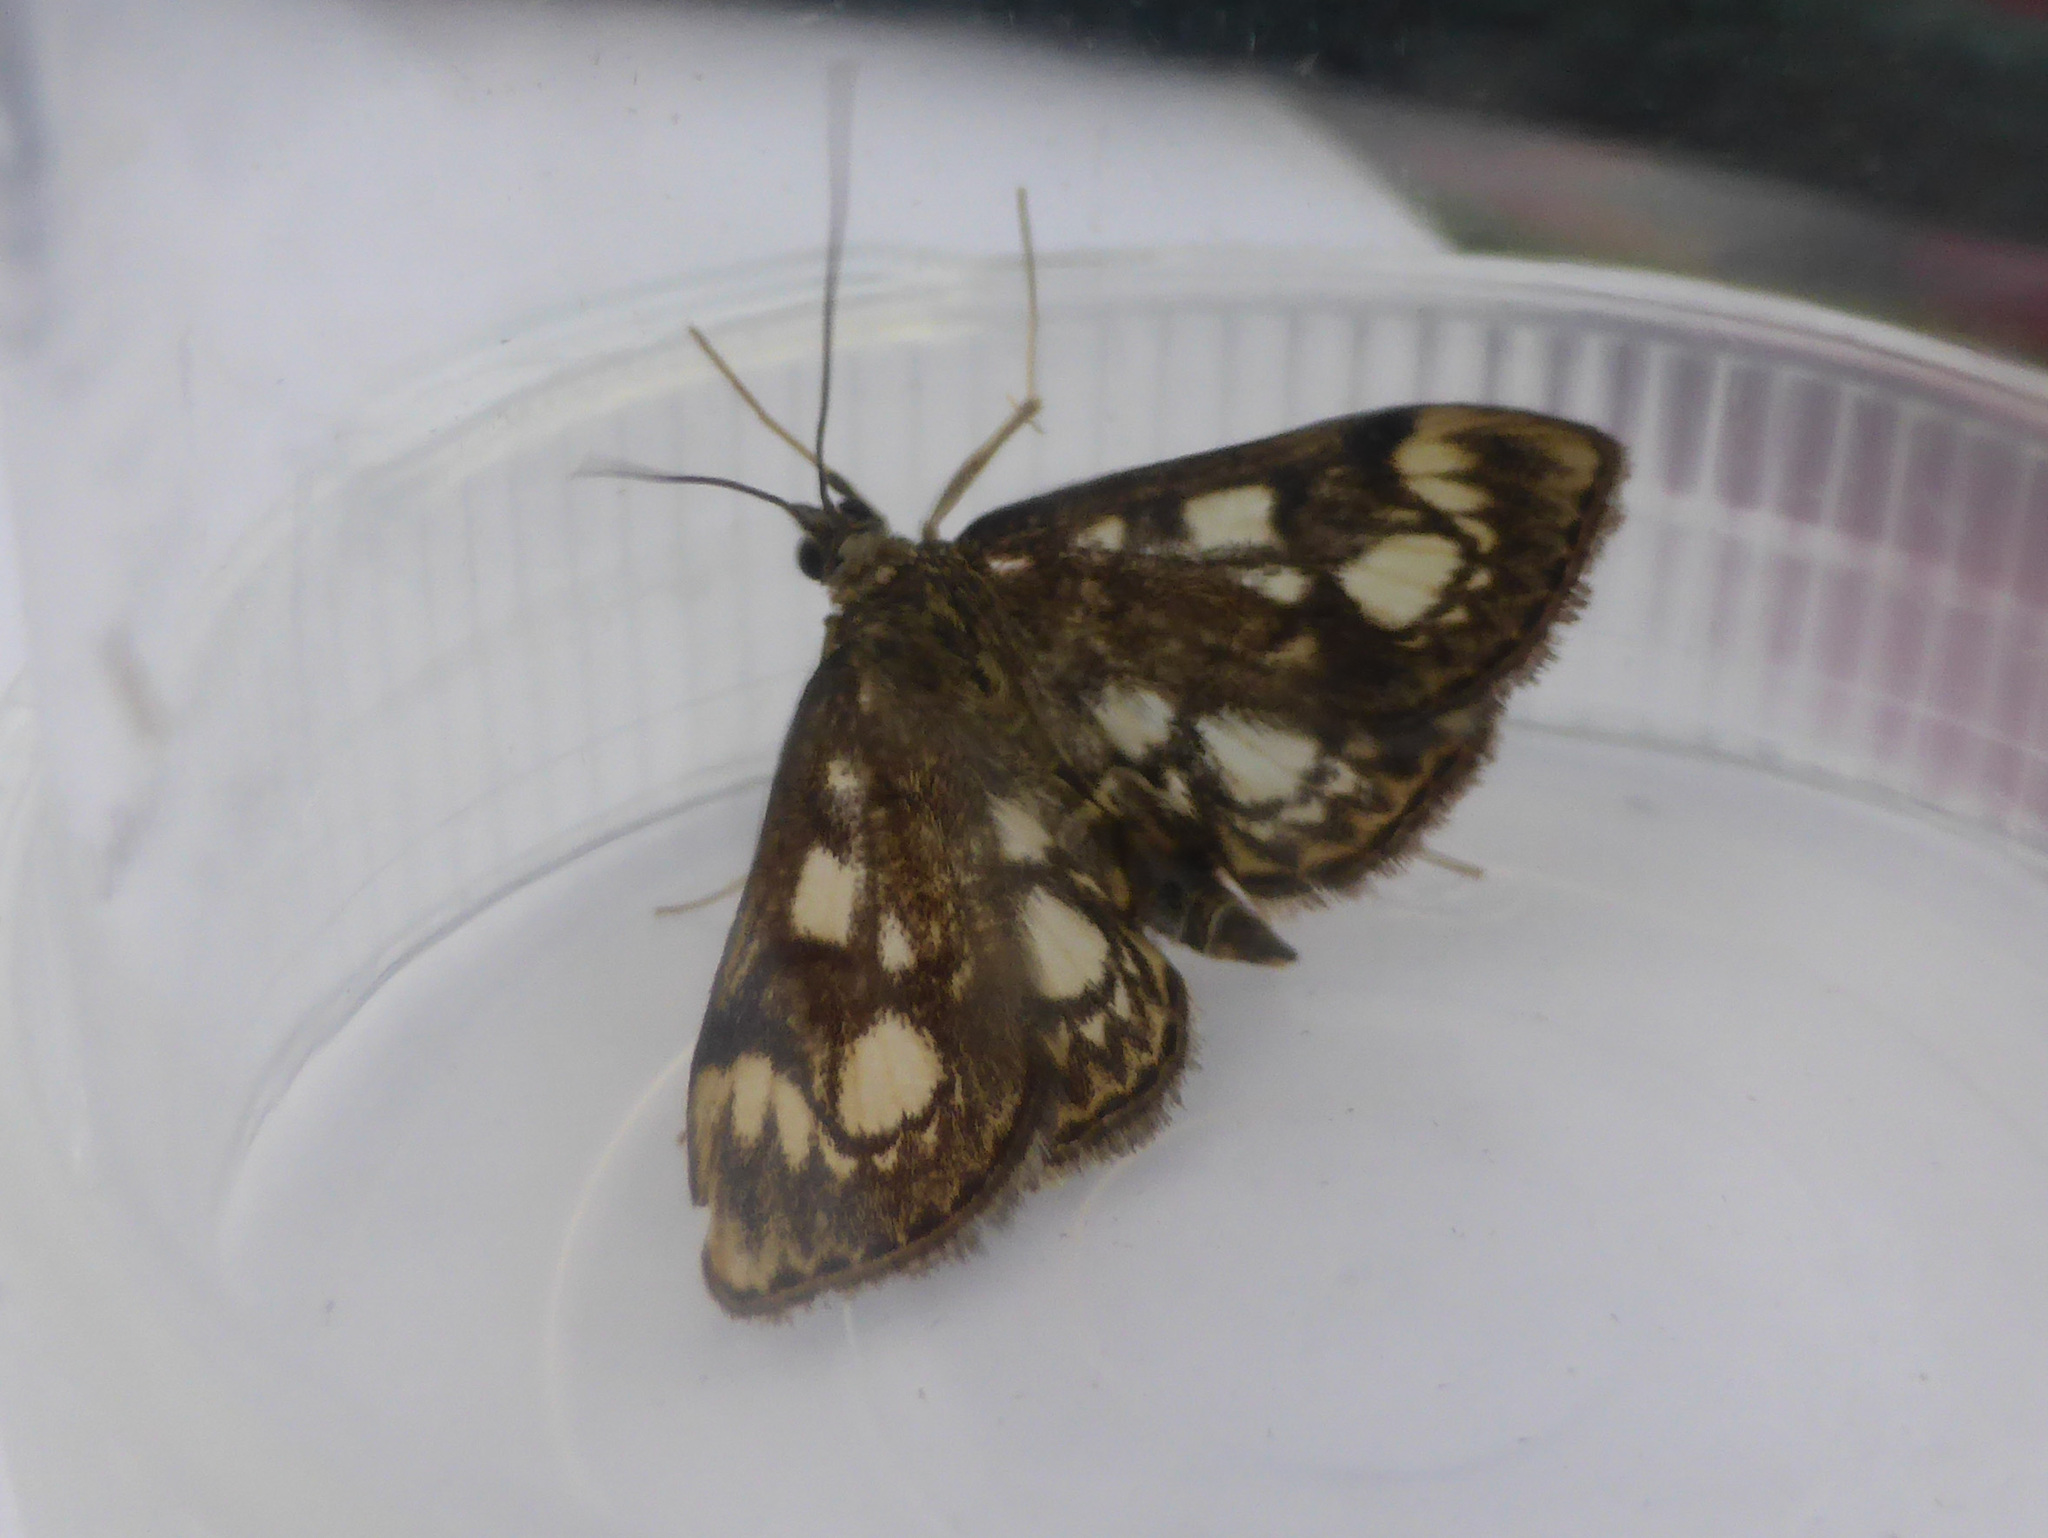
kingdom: Animalia
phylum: Arthropoda
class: Insecta
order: Lepidoptera
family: Crambidae
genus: Anania
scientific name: Anania coronata
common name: Elder pearl
